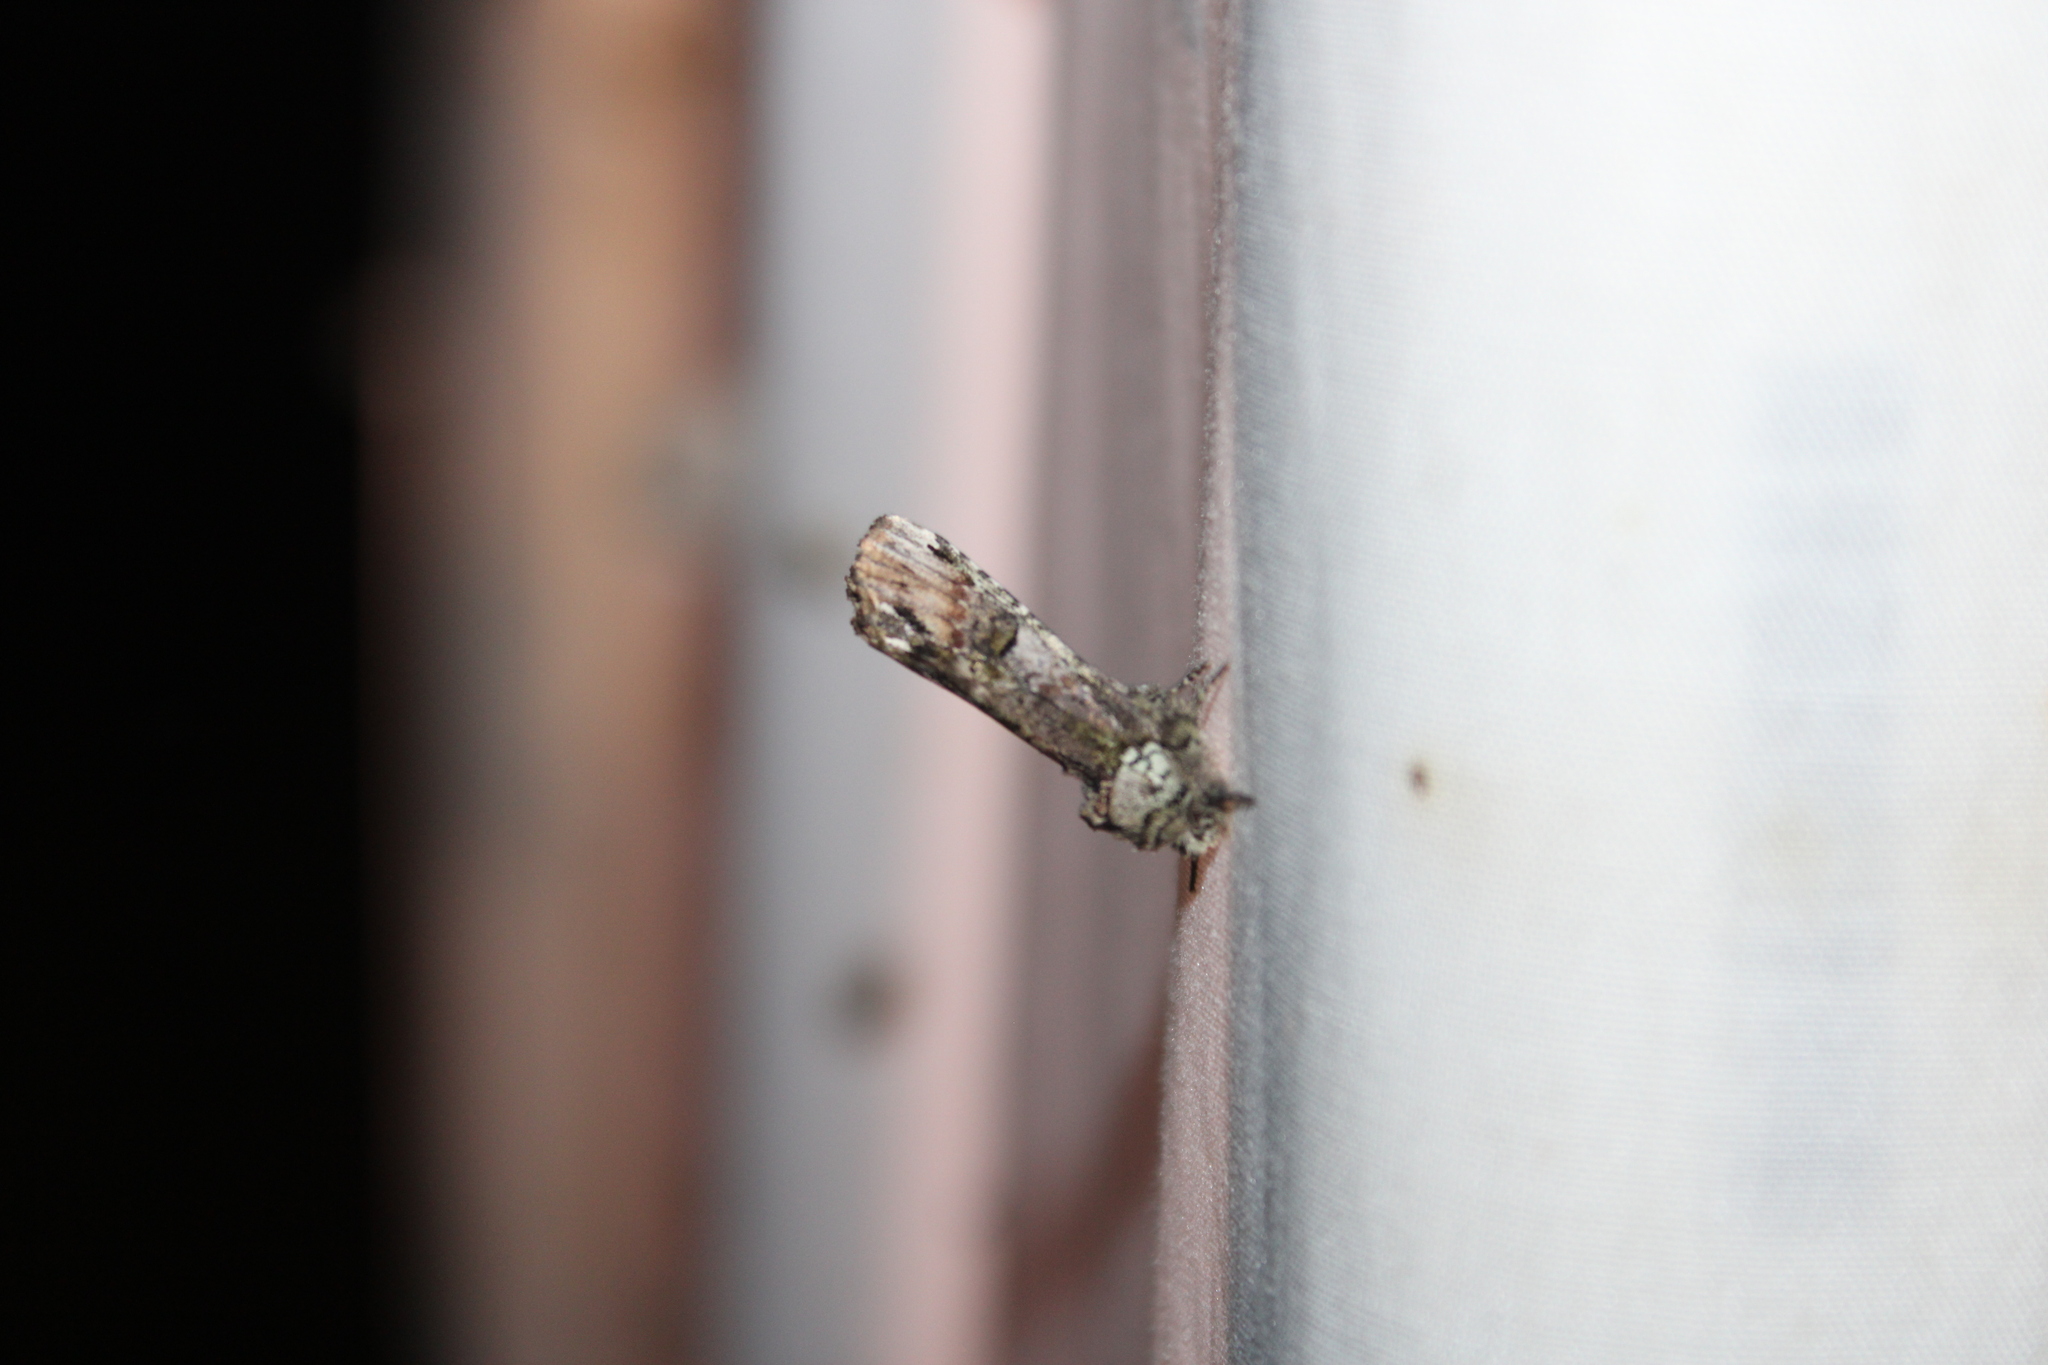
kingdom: Animalia
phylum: Arthropoda
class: Insecta
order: Lepidoptera
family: Notodontidae
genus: Schizura
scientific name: Schizura
